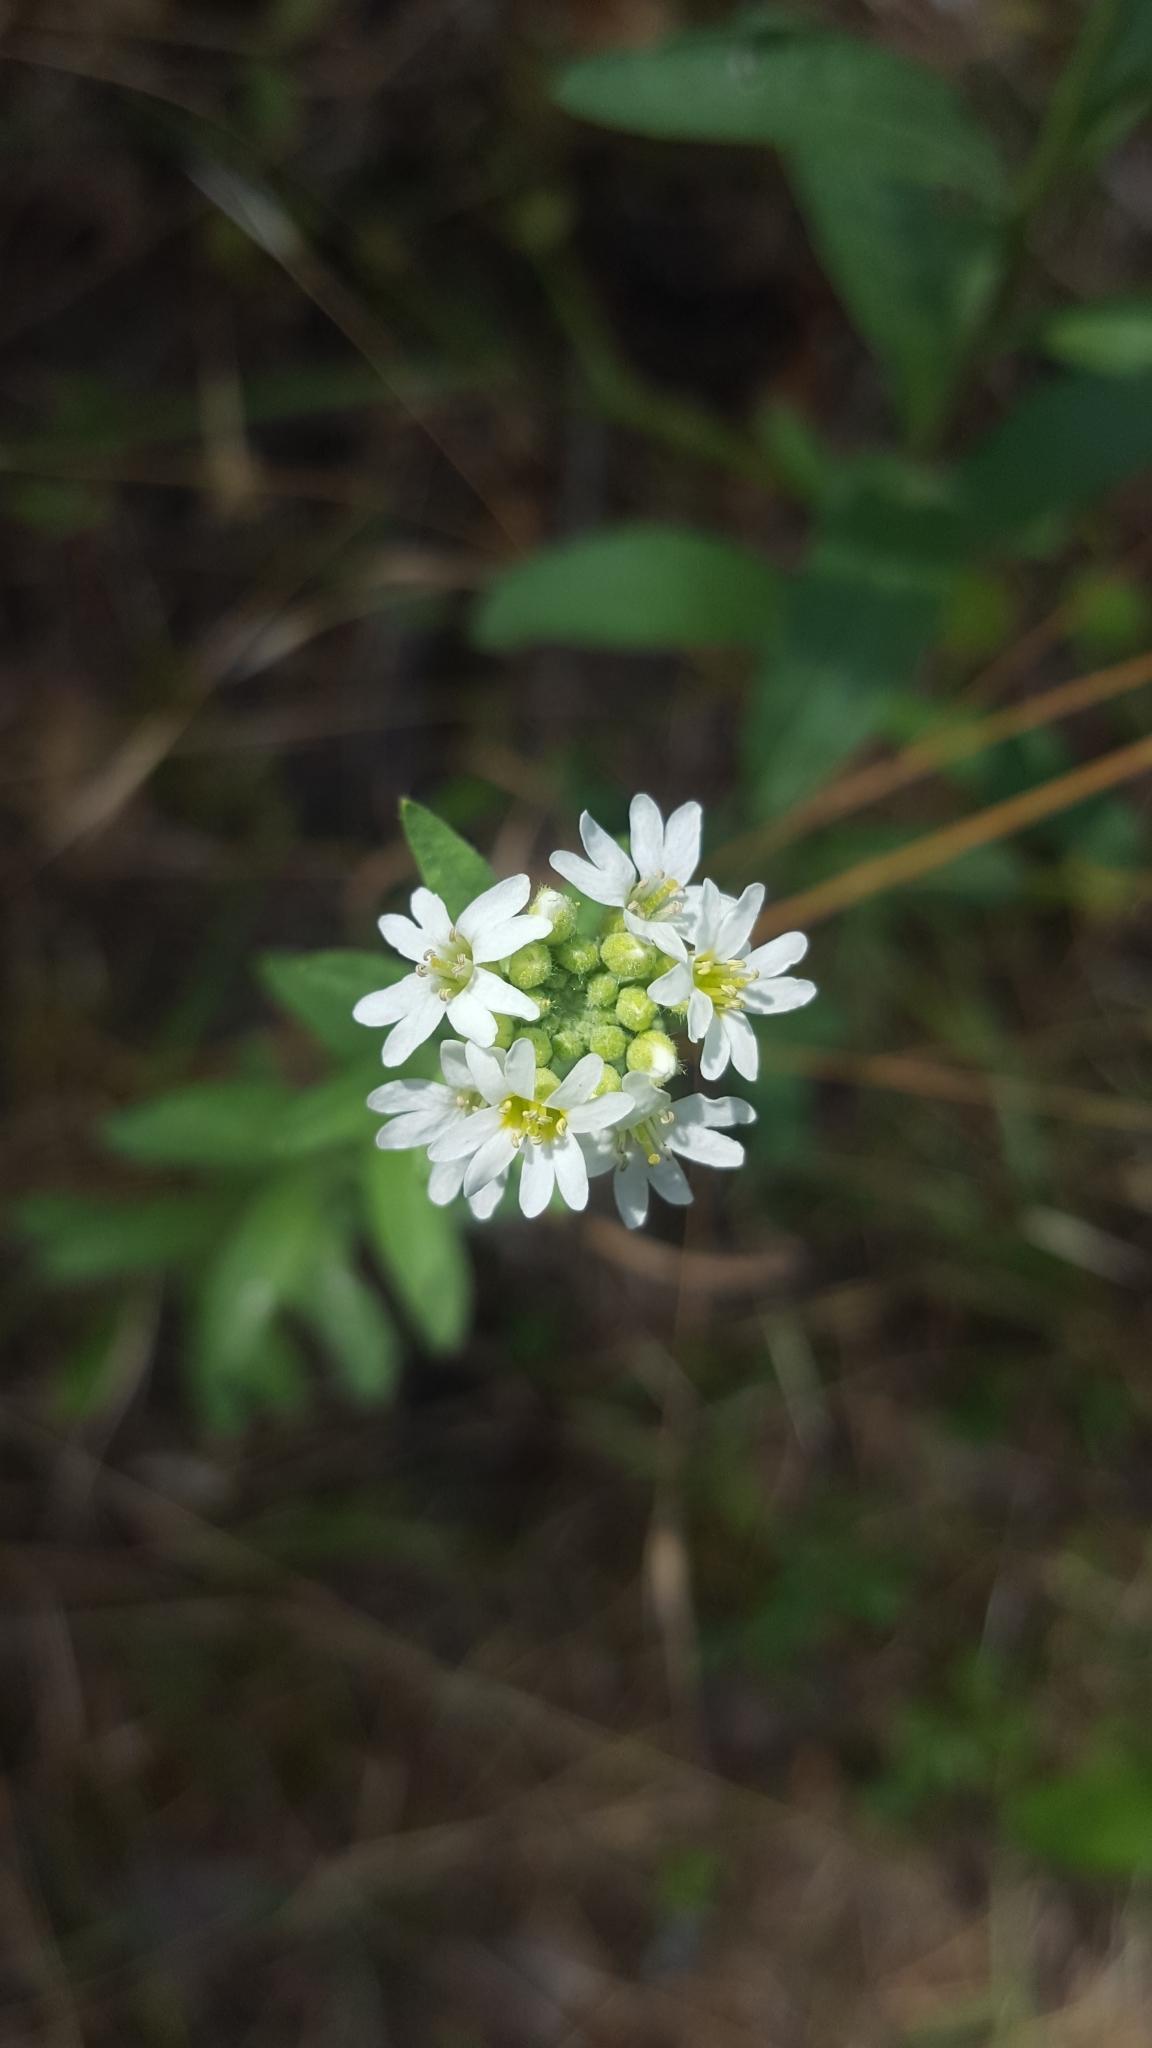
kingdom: Plantae
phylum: Tracheophyta
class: Magnoliopsida
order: Brassicales
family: Brassicaceae
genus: Berteroa
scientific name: Berteroa incana
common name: Hoary alison
